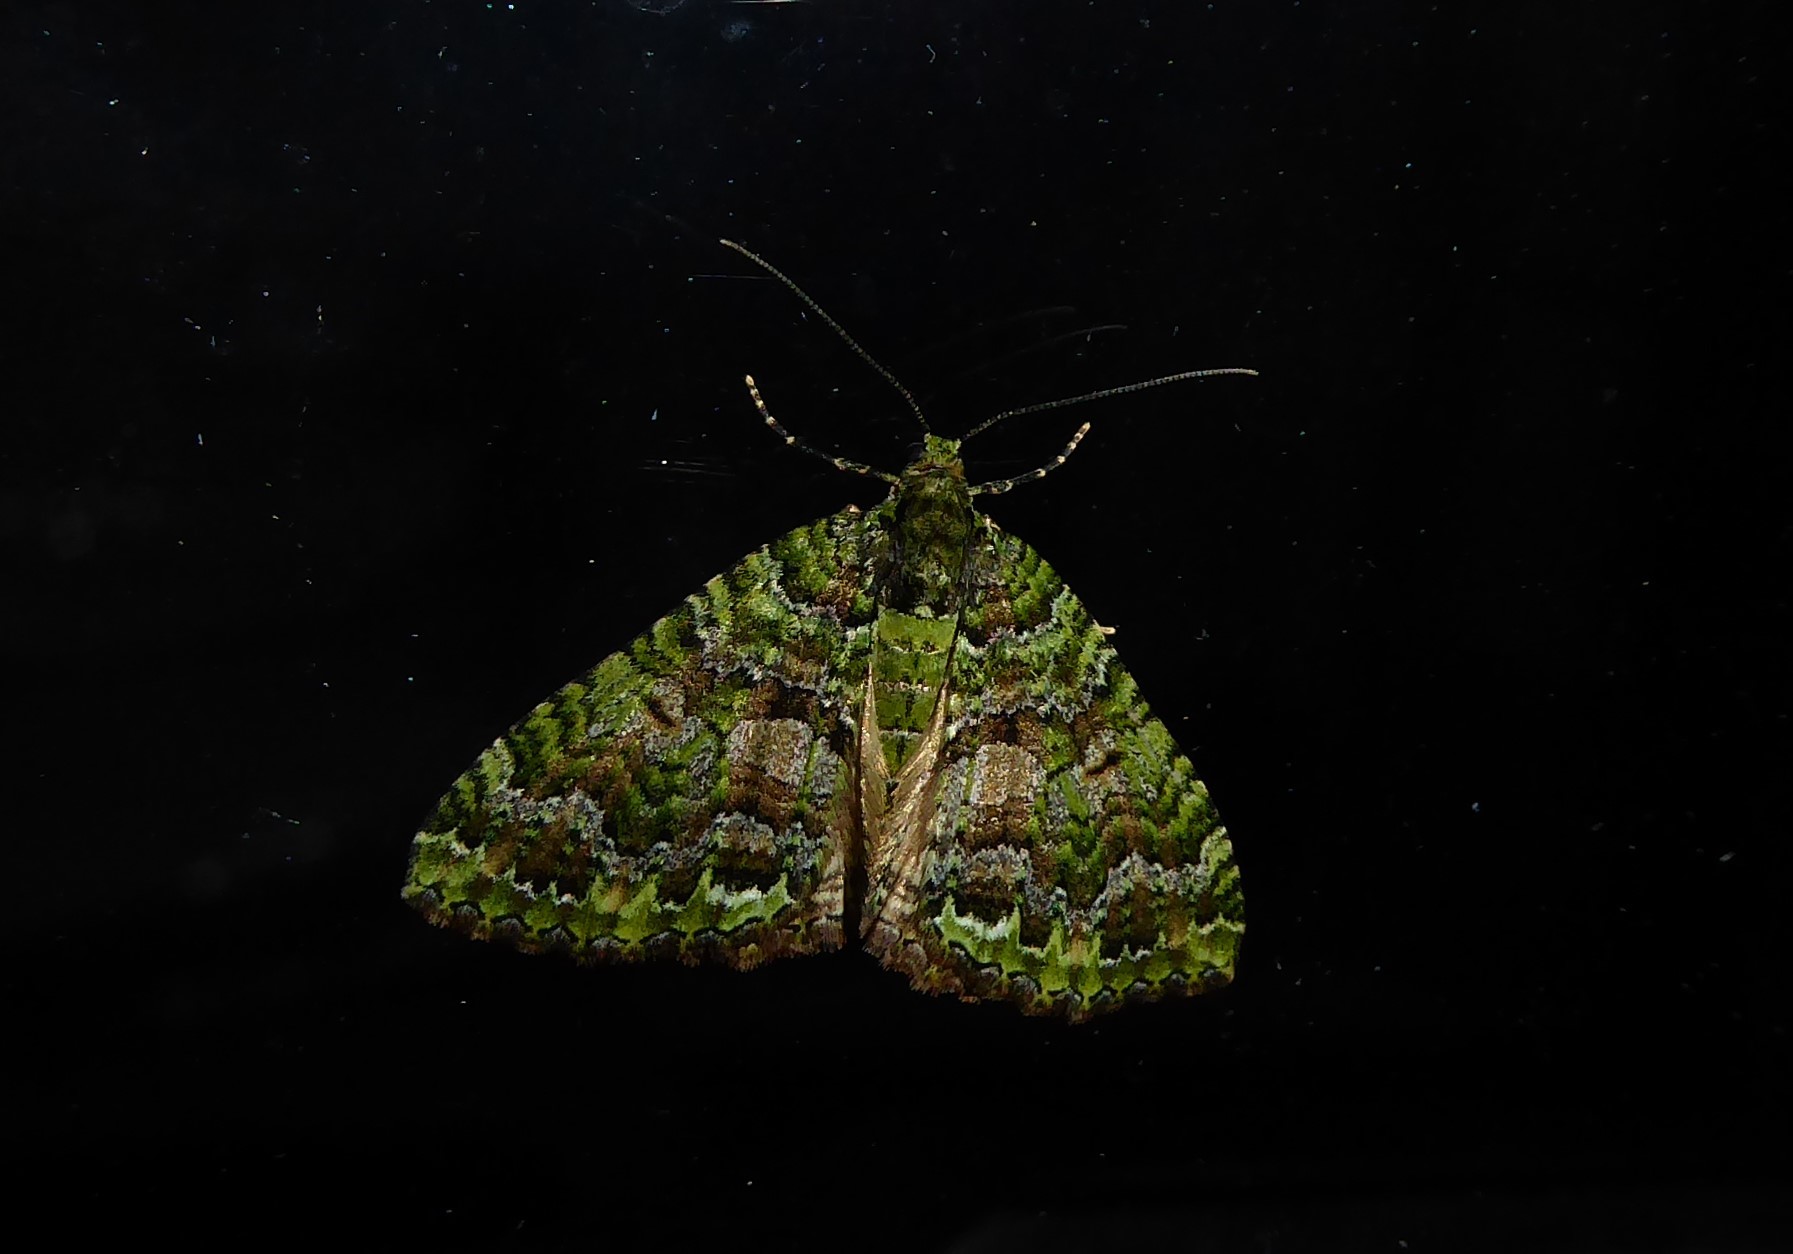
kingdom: Animalia
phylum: Arthropoda
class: Insecta
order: Lepidoptera
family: Geometridae
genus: Austrocidaria
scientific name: Austrocidaria similata
